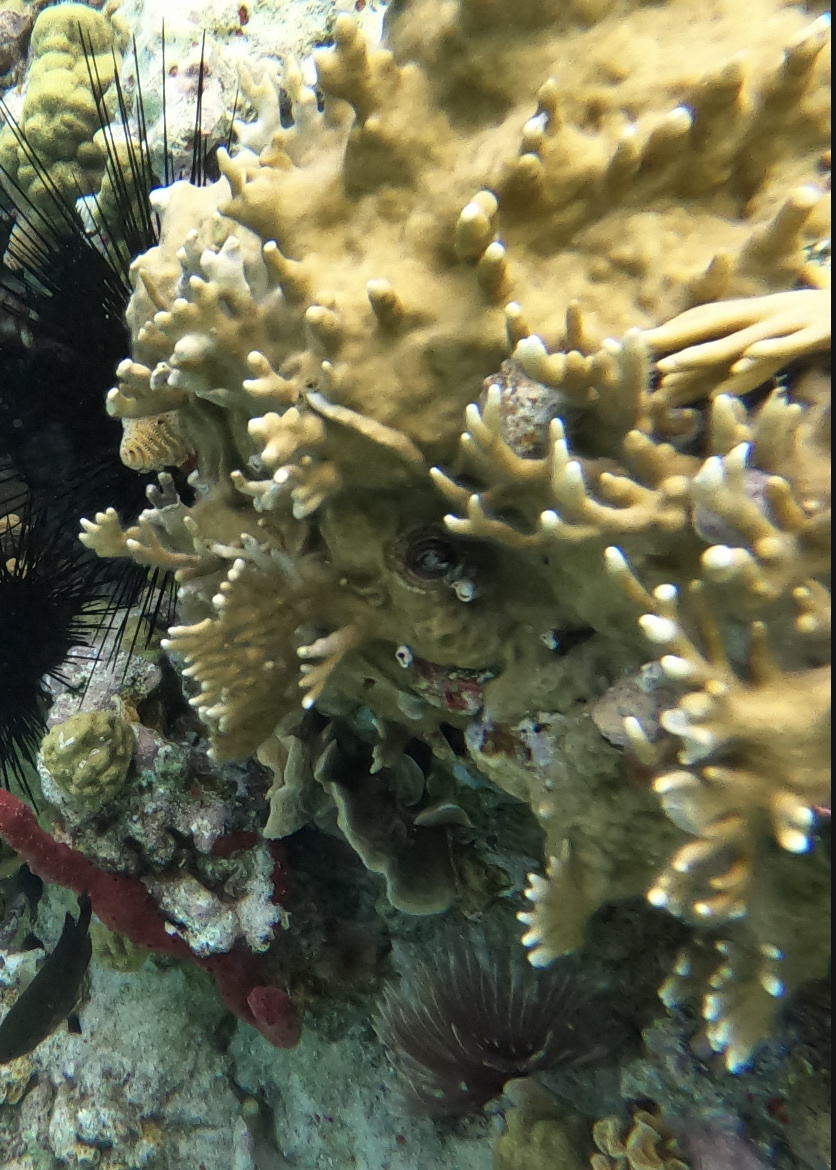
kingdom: Animalia
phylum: Cnidaria
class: Hydrozoa
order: Anthoathecata
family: Milleporidae
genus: Millepora
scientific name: Millepora alcicornis
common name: Branching fire coral
